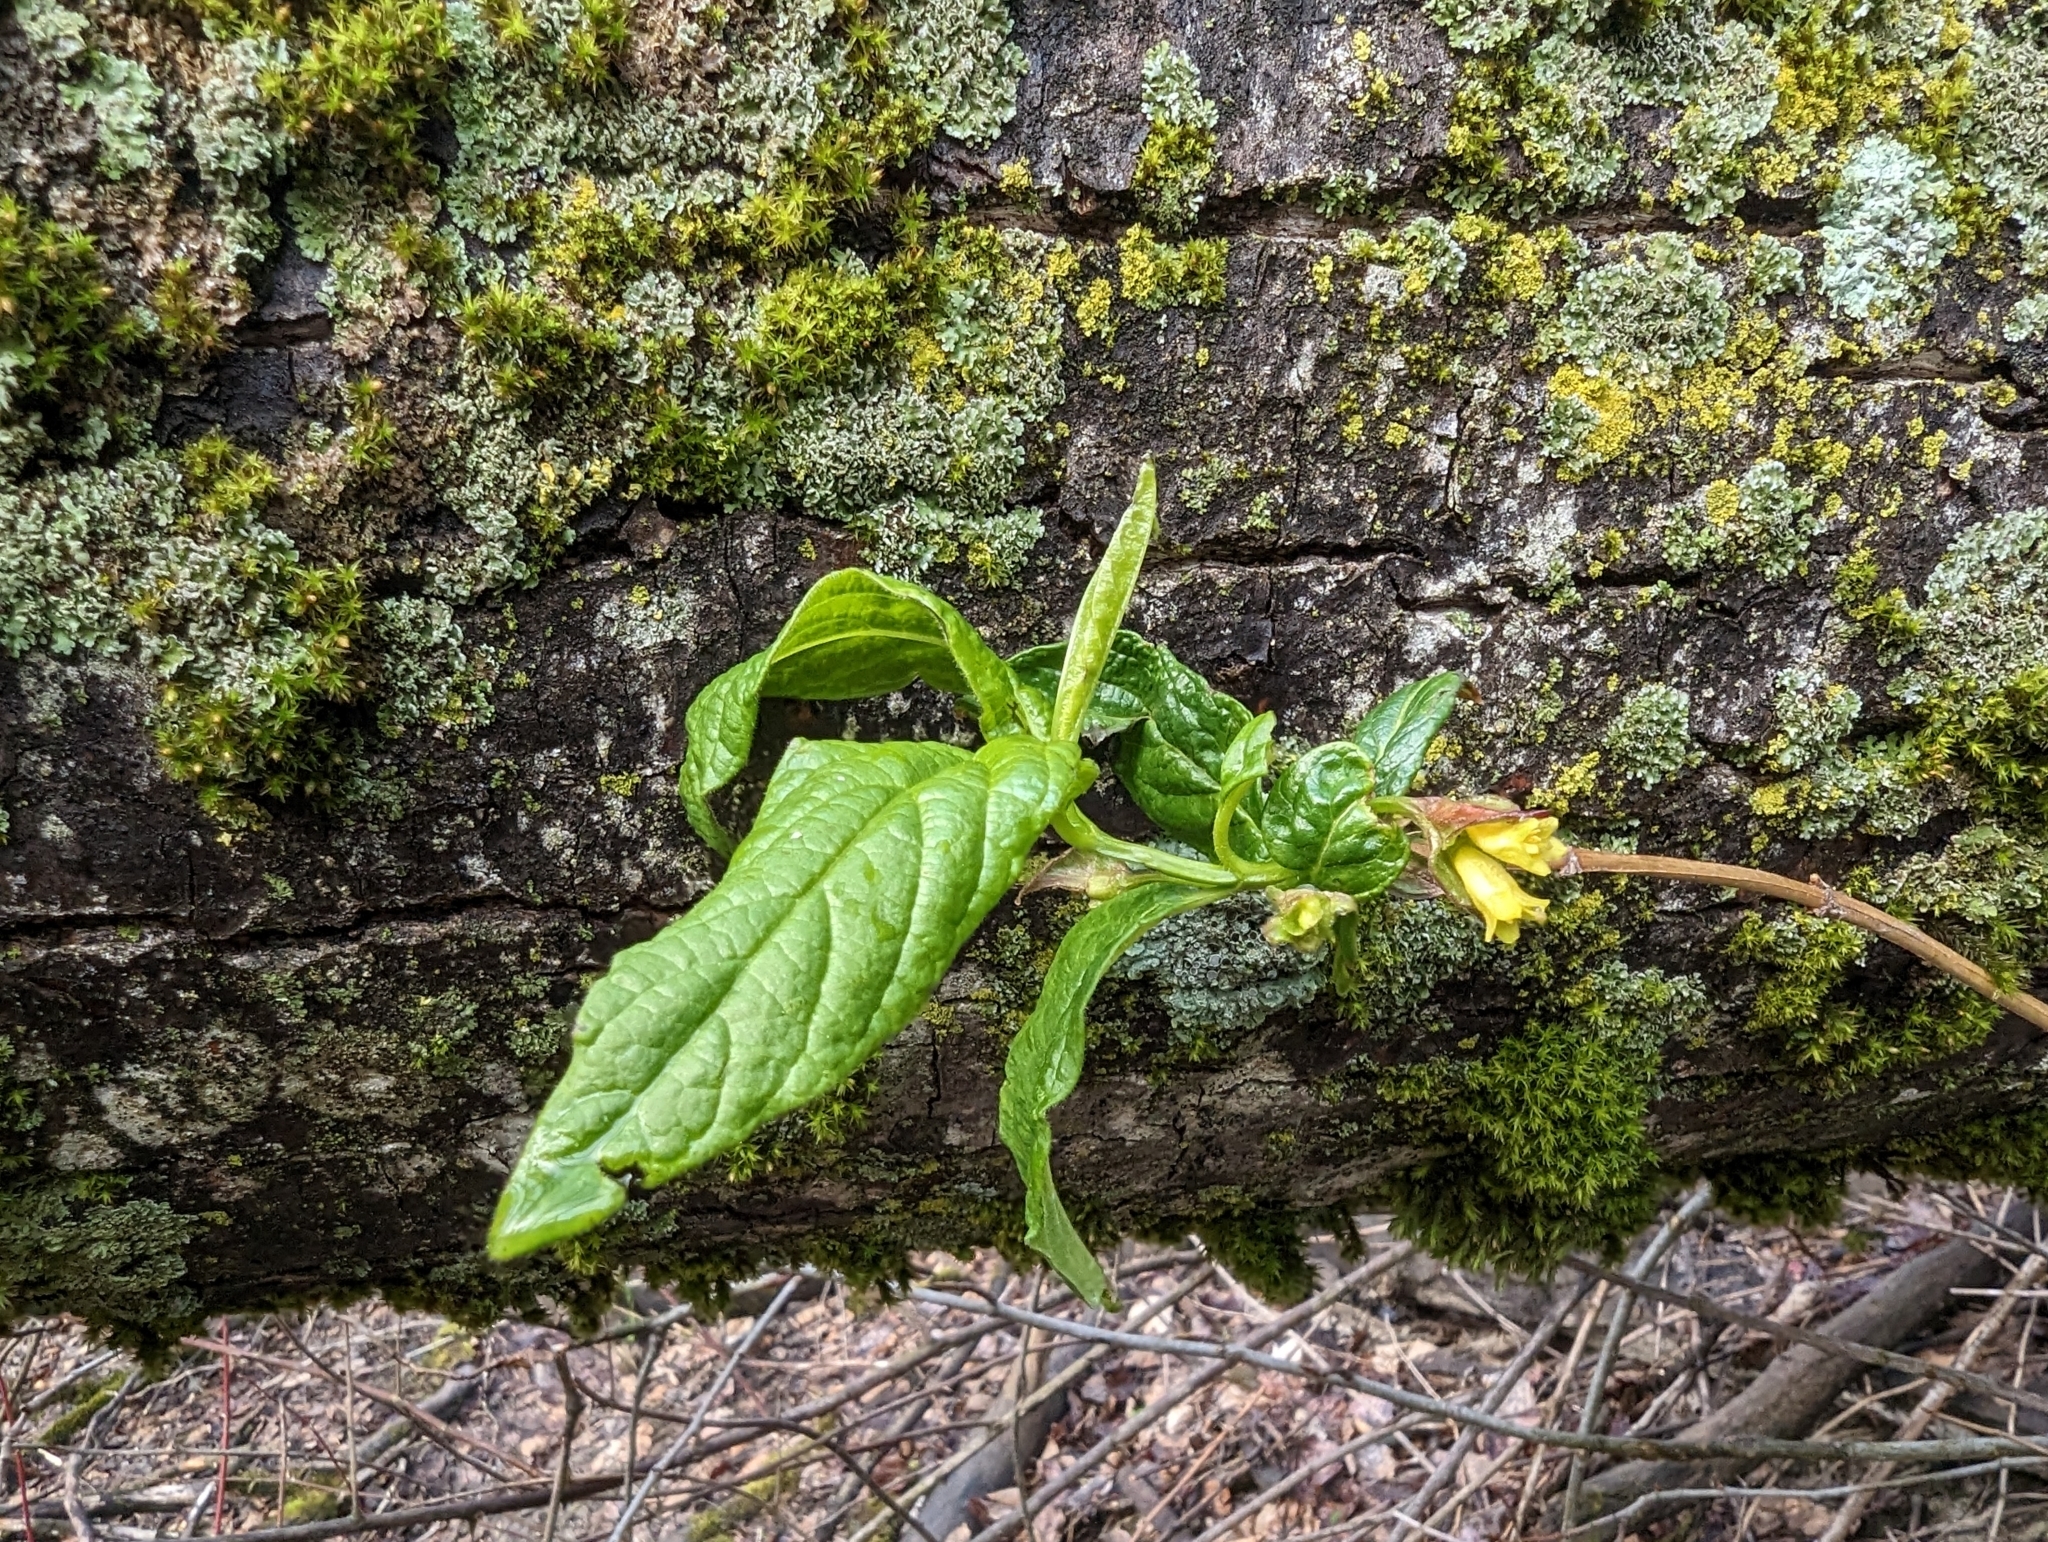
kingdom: Plantae
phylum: Tracheophyta
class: Magnoliopsida
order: Dipsacales
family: Caprifoliaceae
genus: Lonicera
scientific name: Lonicera involucrata
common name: Californian honeysuckle
